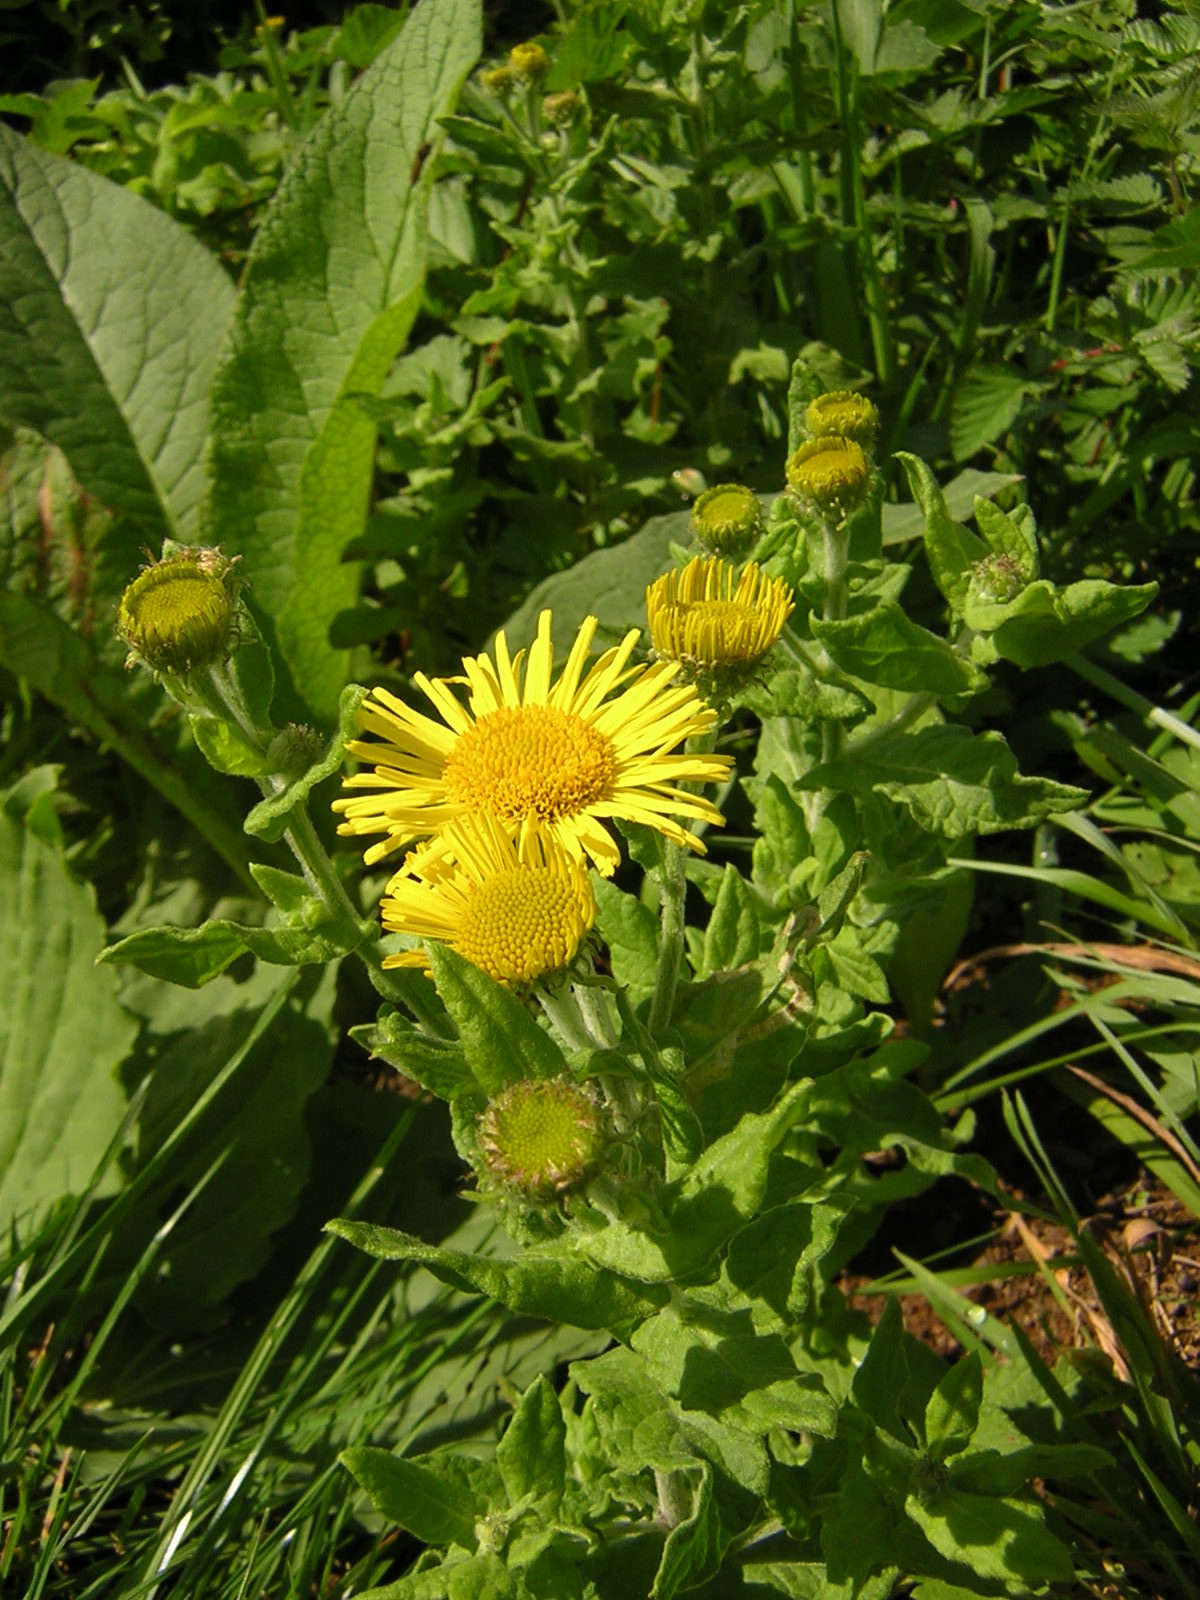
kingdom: Plantae
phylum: Tracheophyta
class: Magnoliopsida
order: Asterales
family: Asteraceae
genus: Pulicaria
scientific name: Pulicaria dysenterica
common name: Common fleabane
